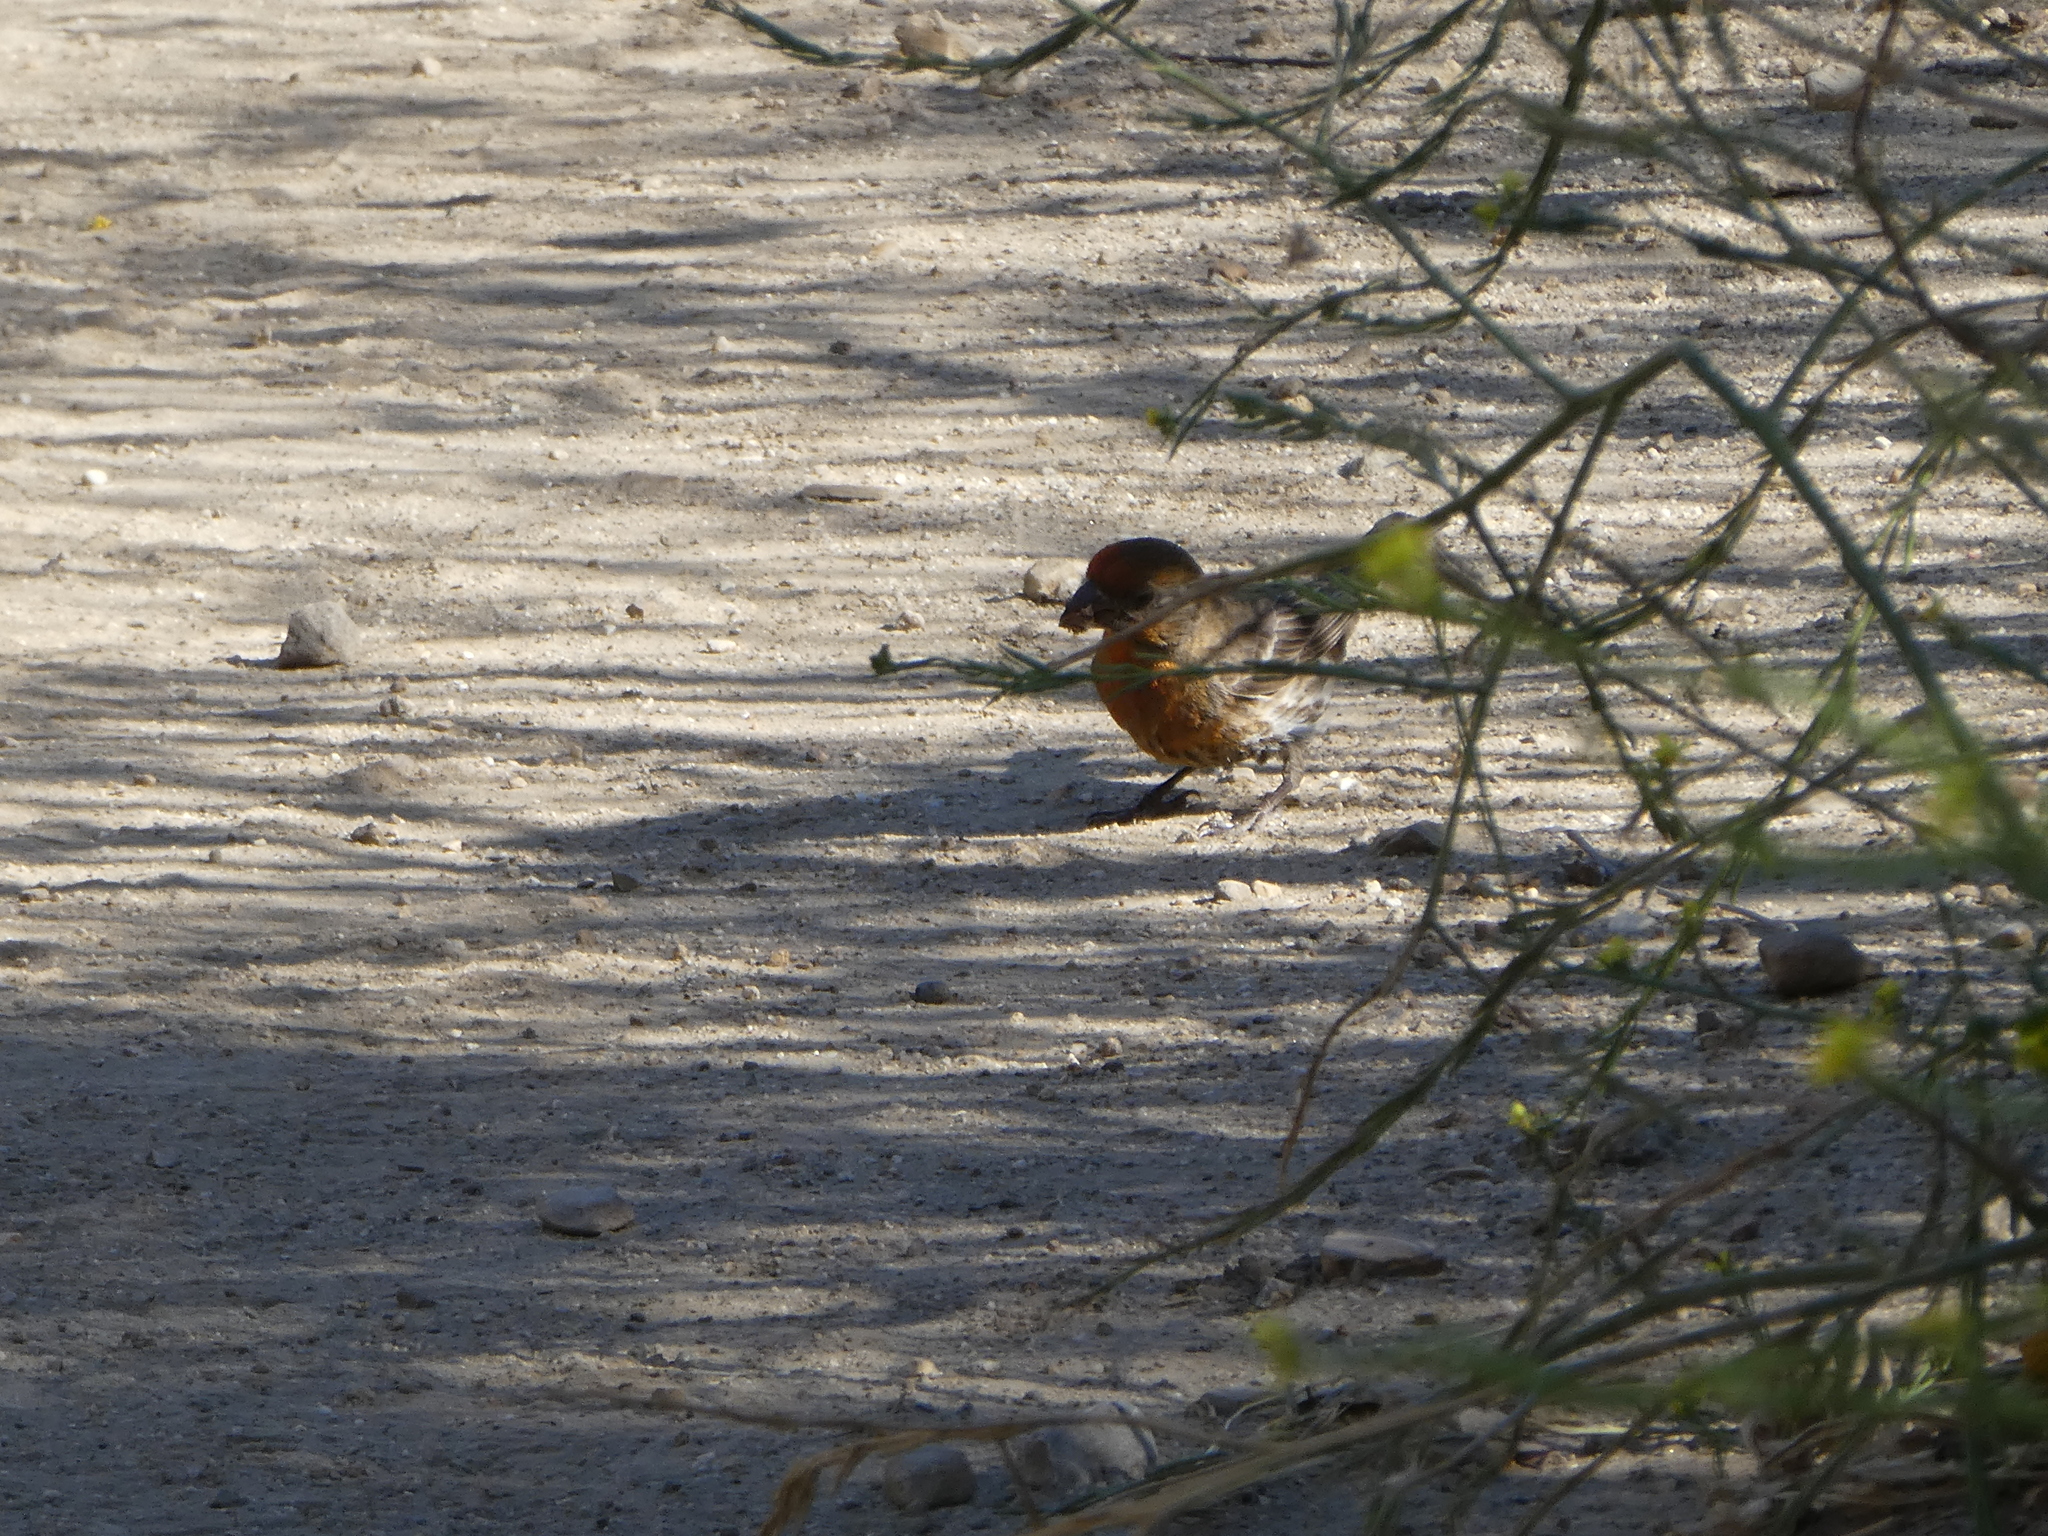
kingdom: Animalia
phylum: Chordata
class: Aves
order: Passeriformes
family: Fringillidae
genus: Haemorhous
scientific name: Haemorhous mexicanus
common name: House finch
